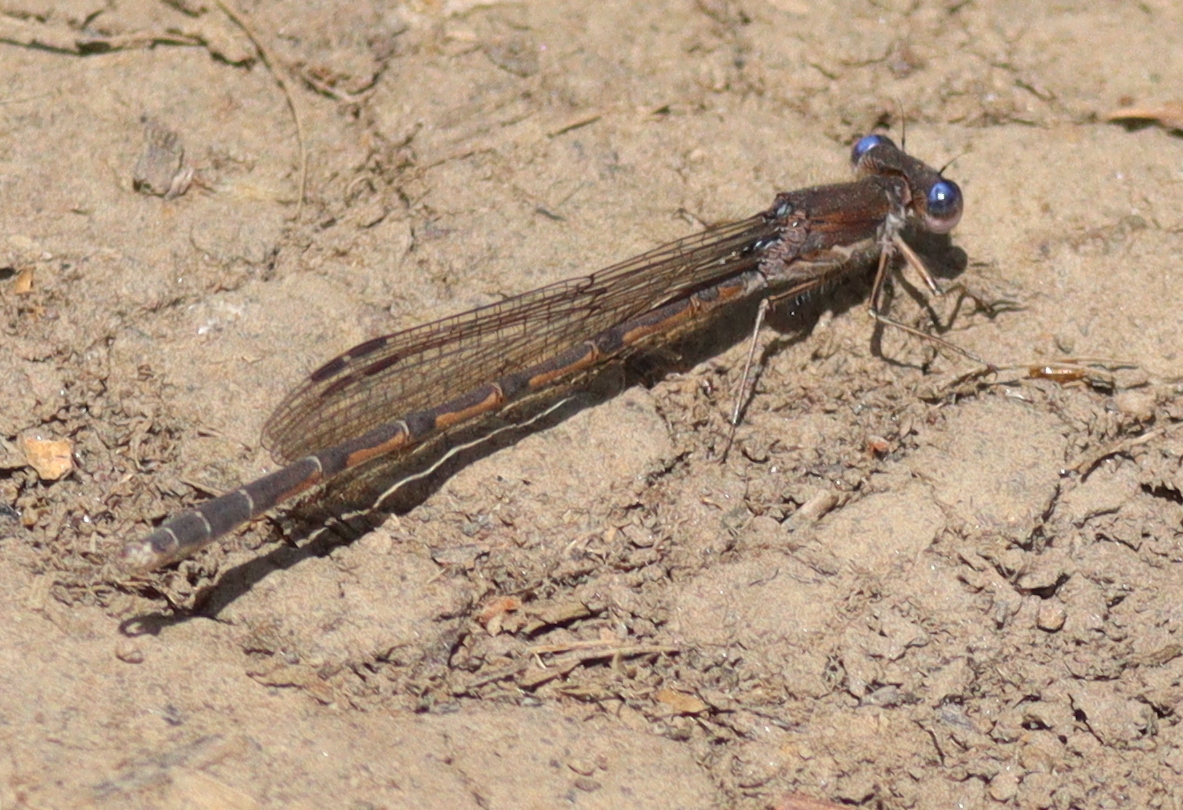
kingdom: Animalia
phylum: Arthropoda
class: Insecta
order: Odonata
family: Lestidae
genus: Sympecma
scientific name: Sympecma fusca
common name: Common winter damsel
